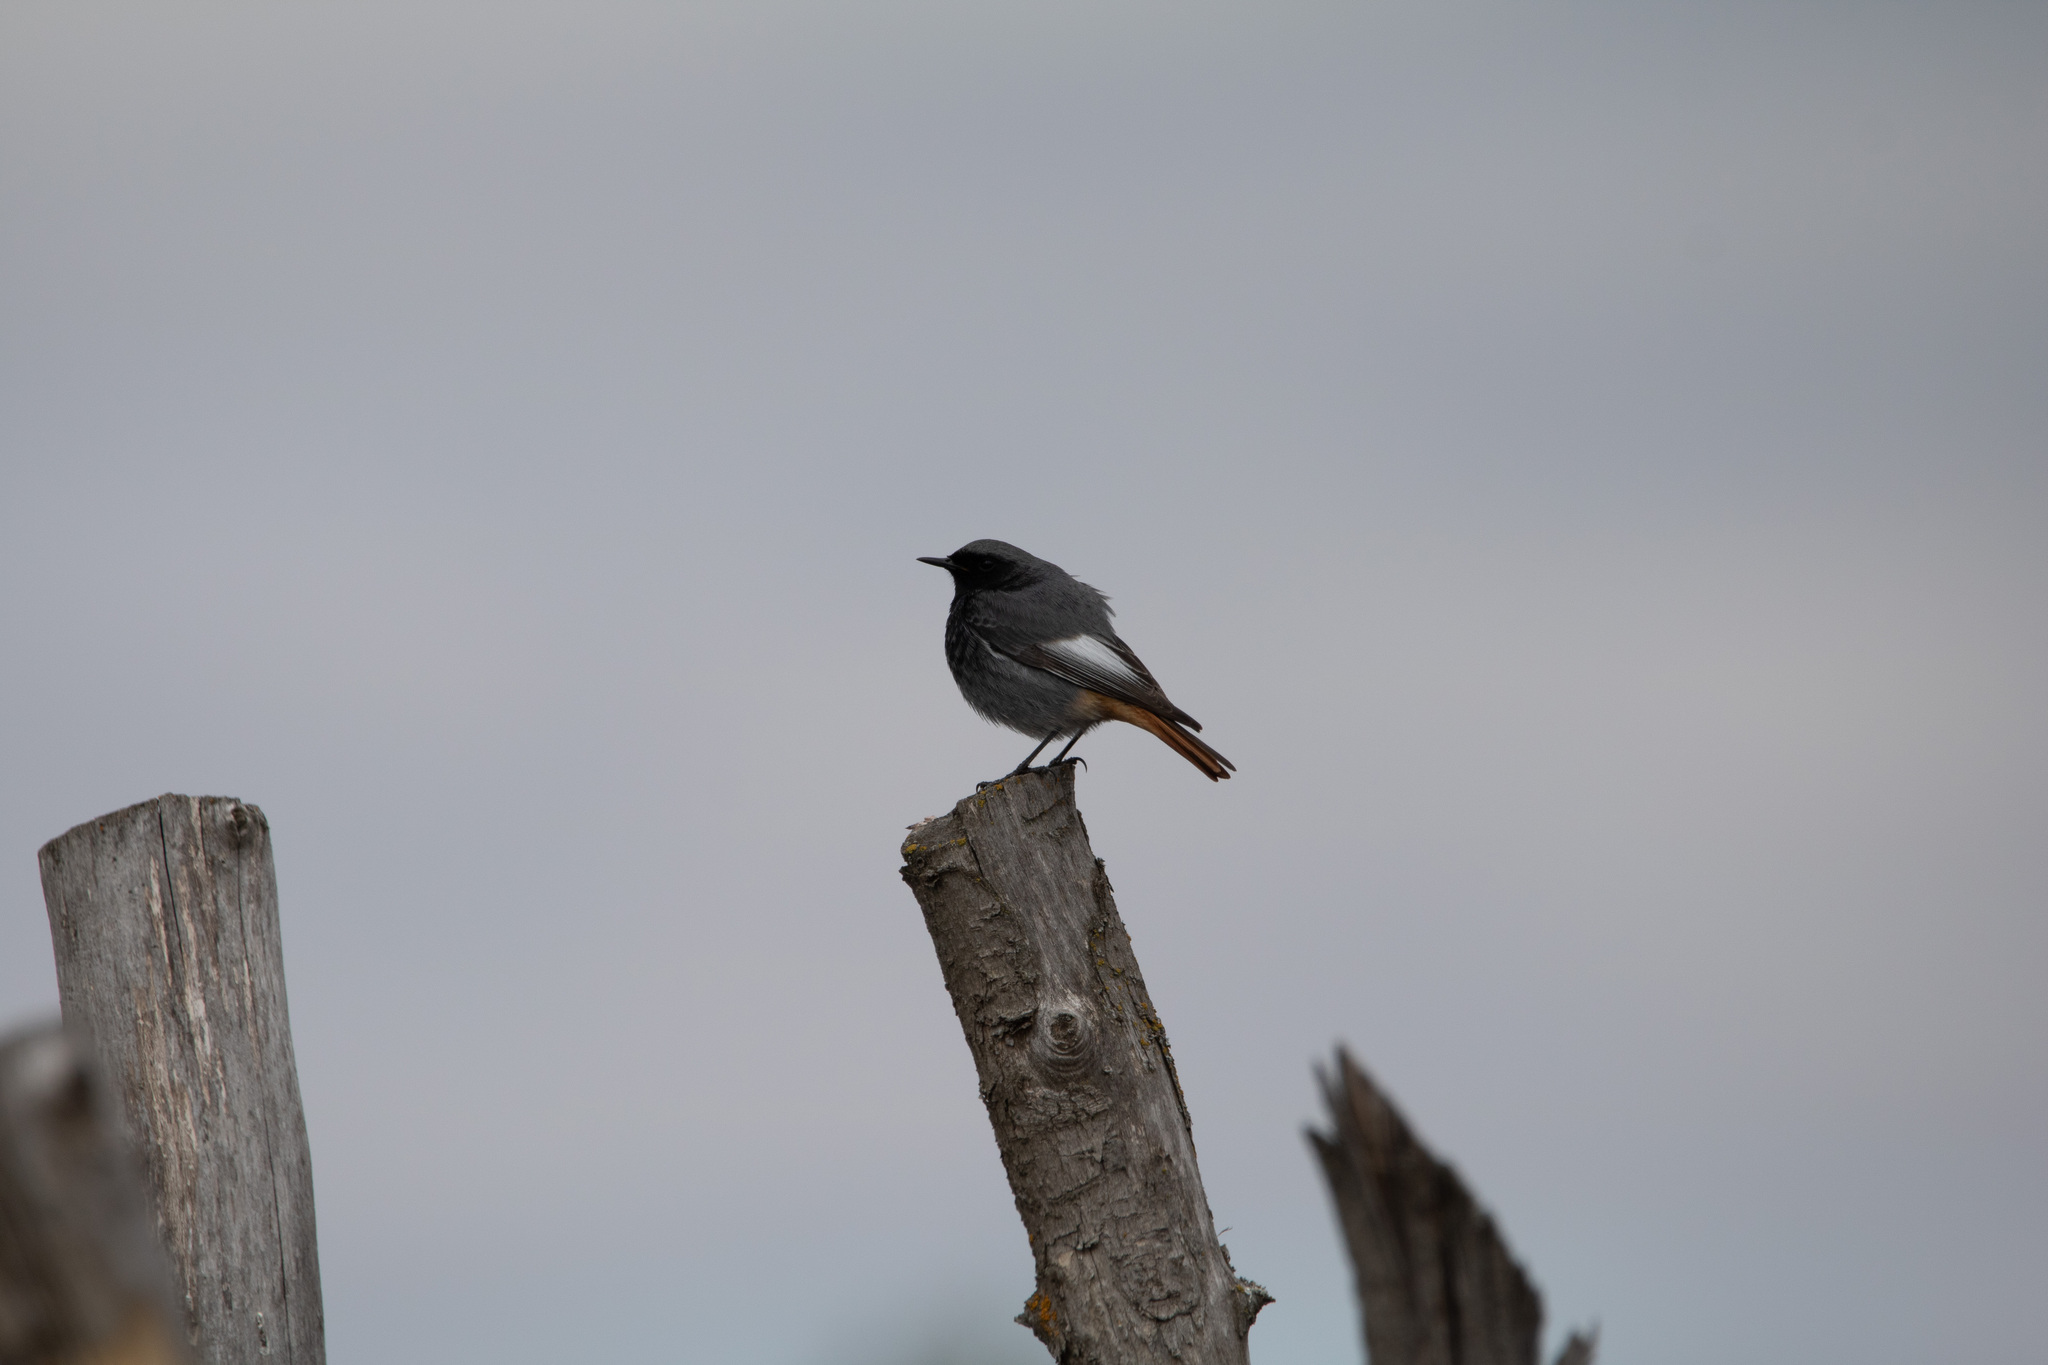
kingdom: Animalia
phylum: Chordata
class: Aves
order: Passeriformes
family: Muscicapidae
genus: Phoenicurus
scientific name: Phoenicurus ochruros
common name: Black redstart
